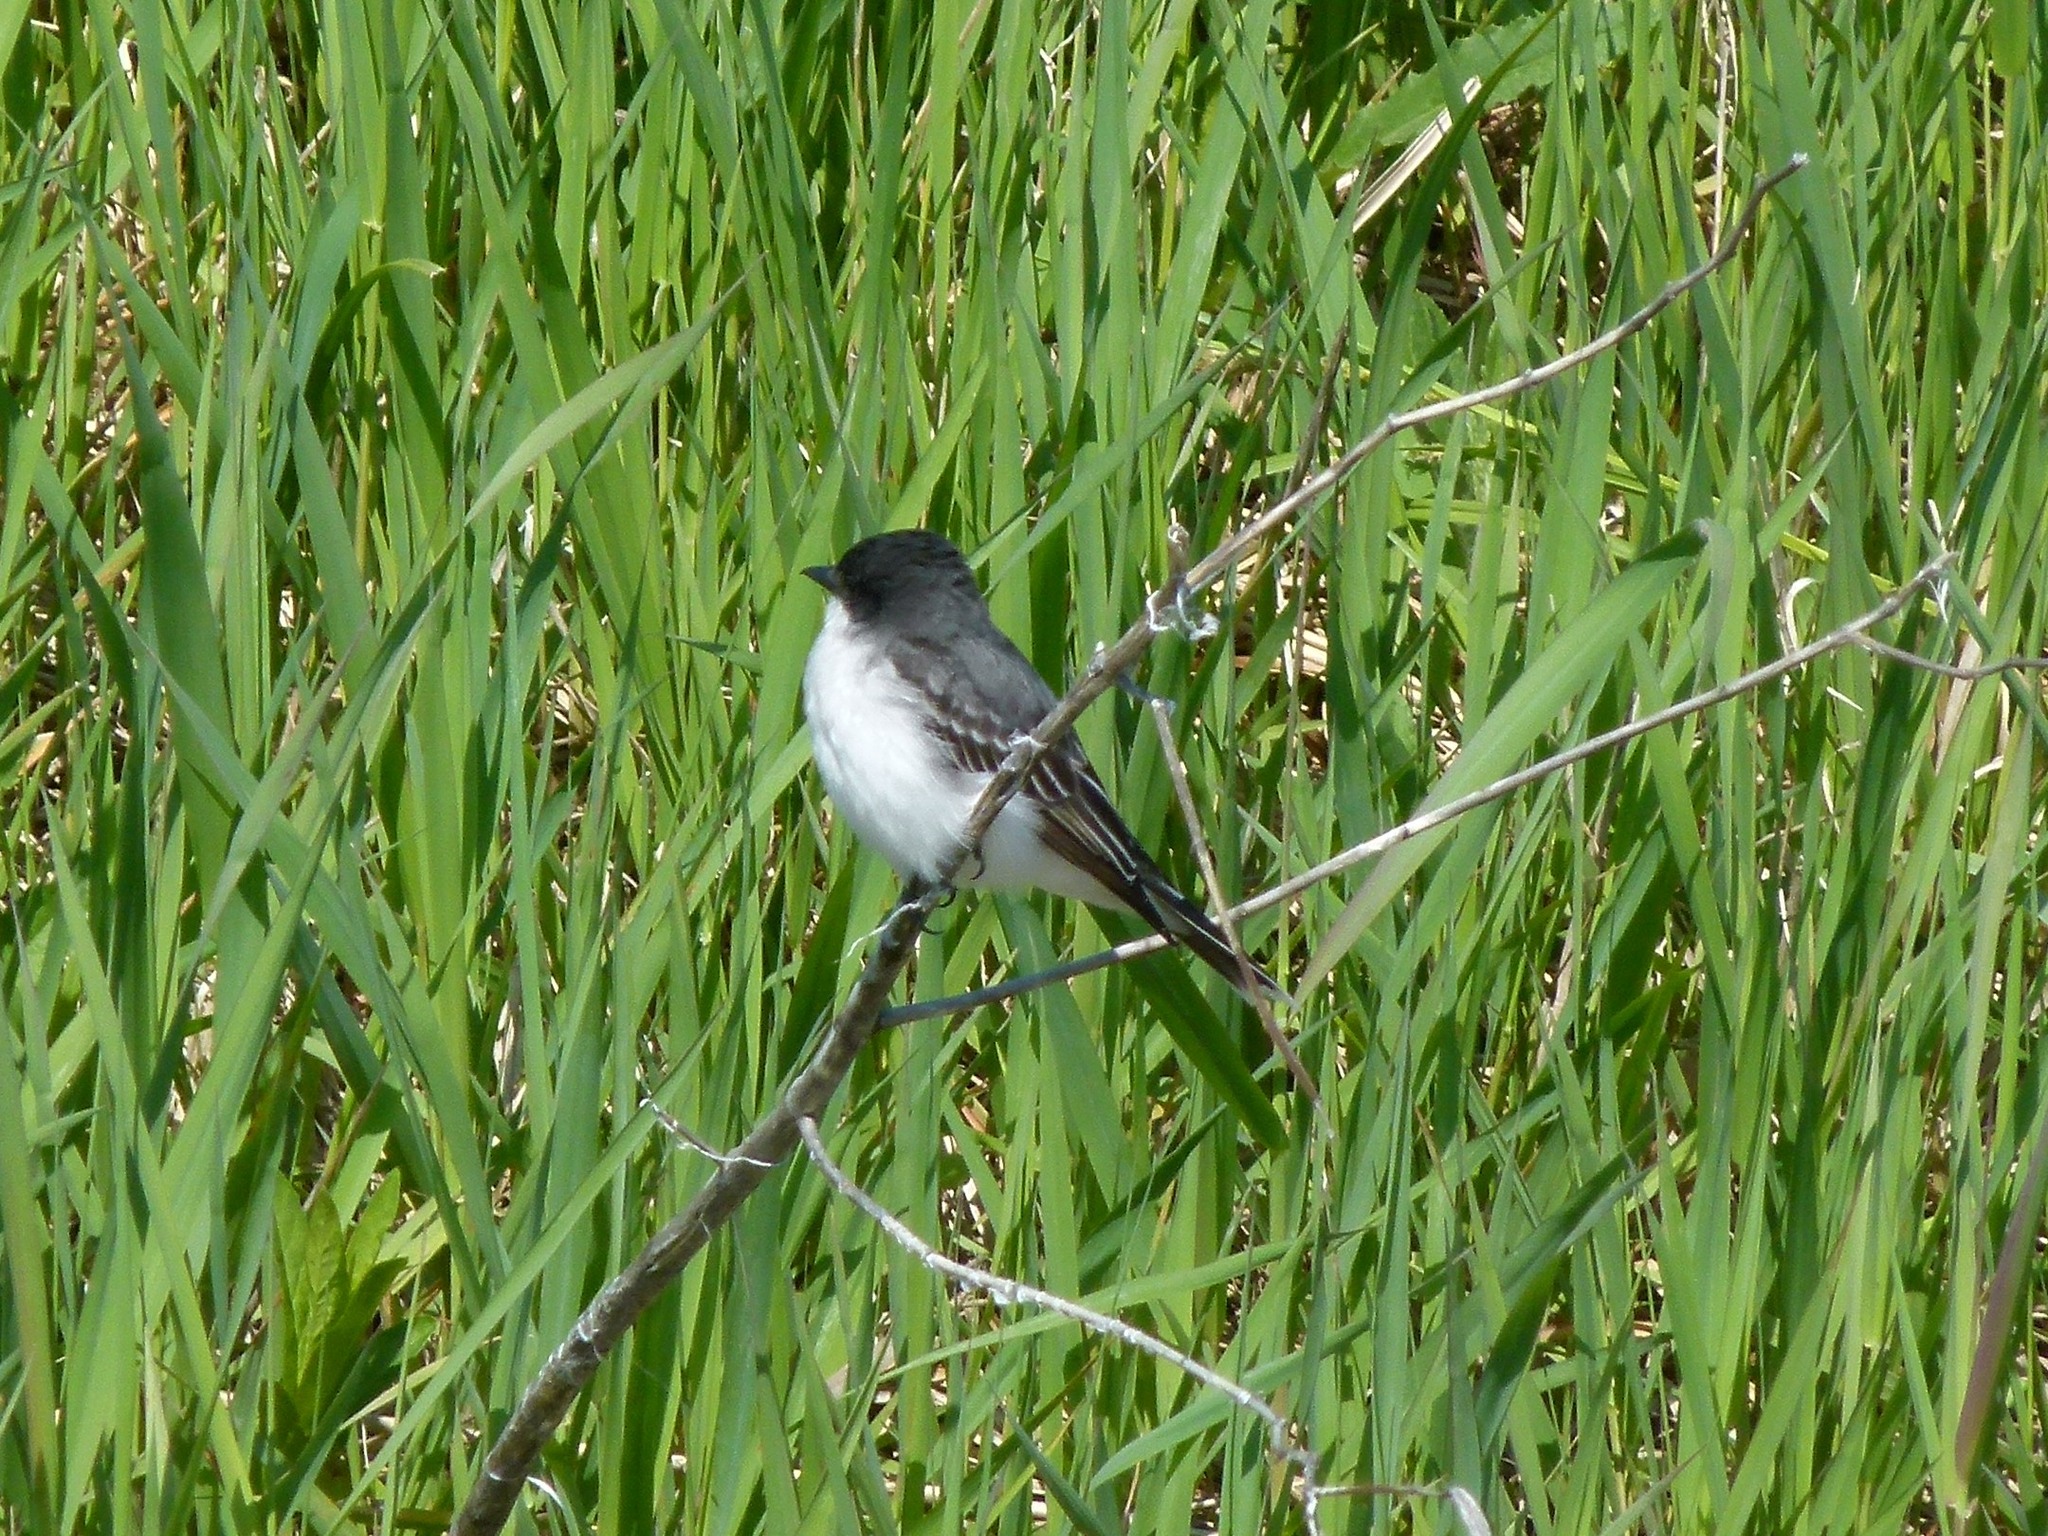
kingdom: Animalia
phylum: Chordata
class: Aves
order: Passeriformes
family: Tyrannidae
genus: Tyrannus
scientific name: Tyrannus tyrannus
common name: Eastern kingbird
